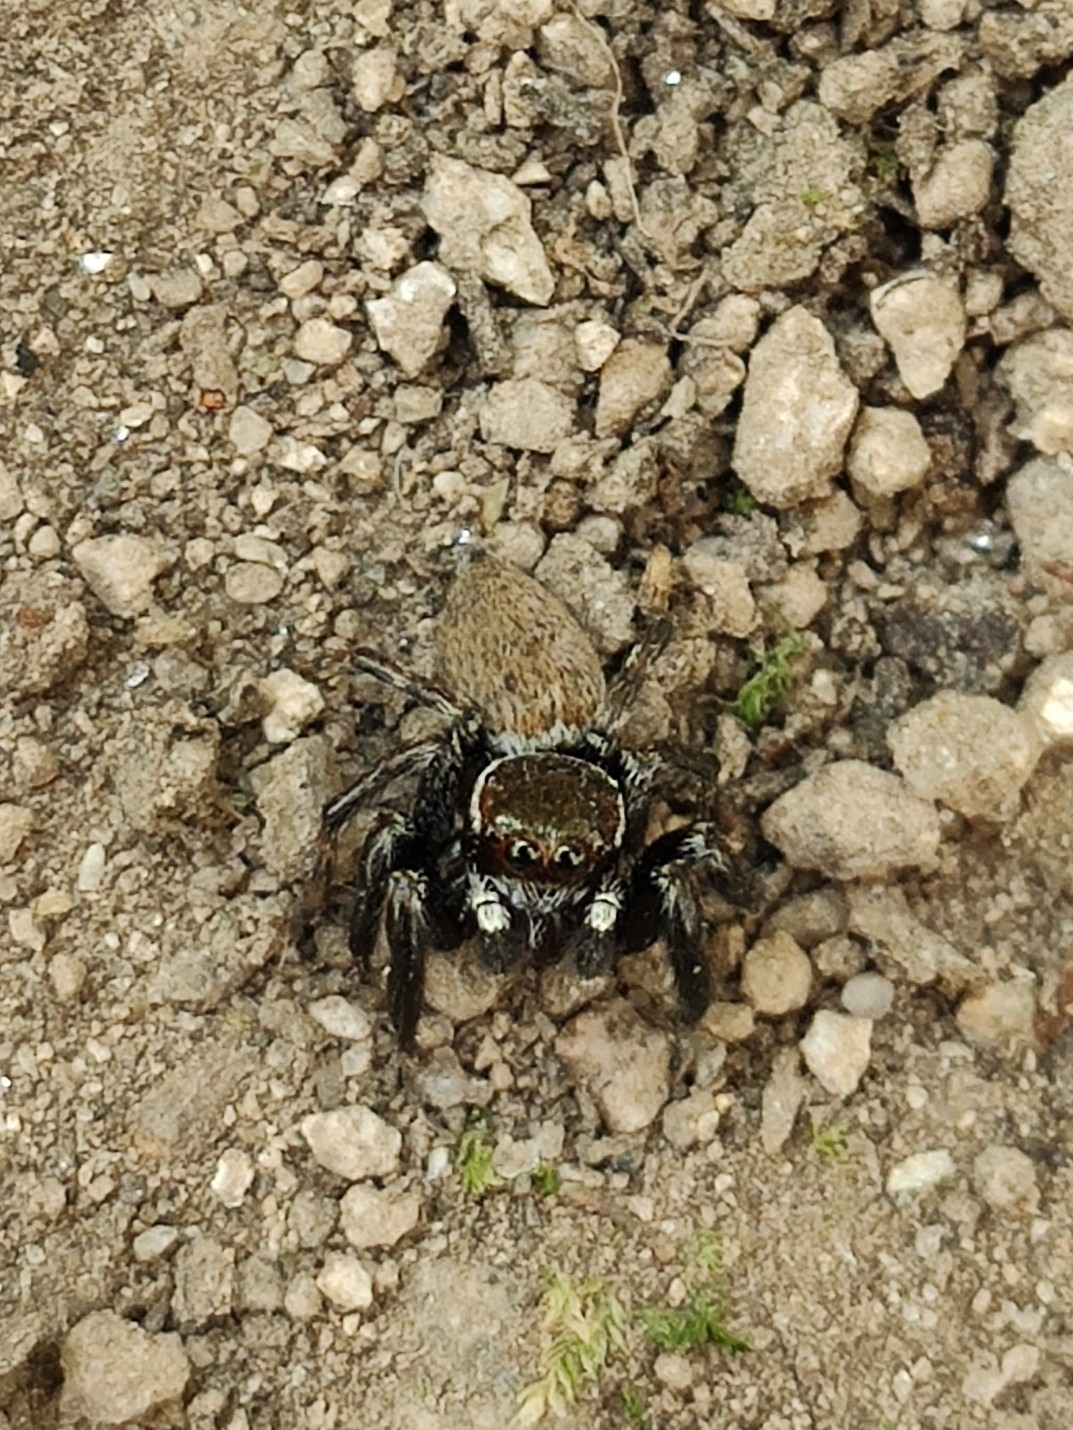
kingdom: Animalia
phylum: Arthropoda
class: Arachnida
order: Araneae
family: Salticidae
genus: Evarcha
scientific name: Evarcha jucunda
